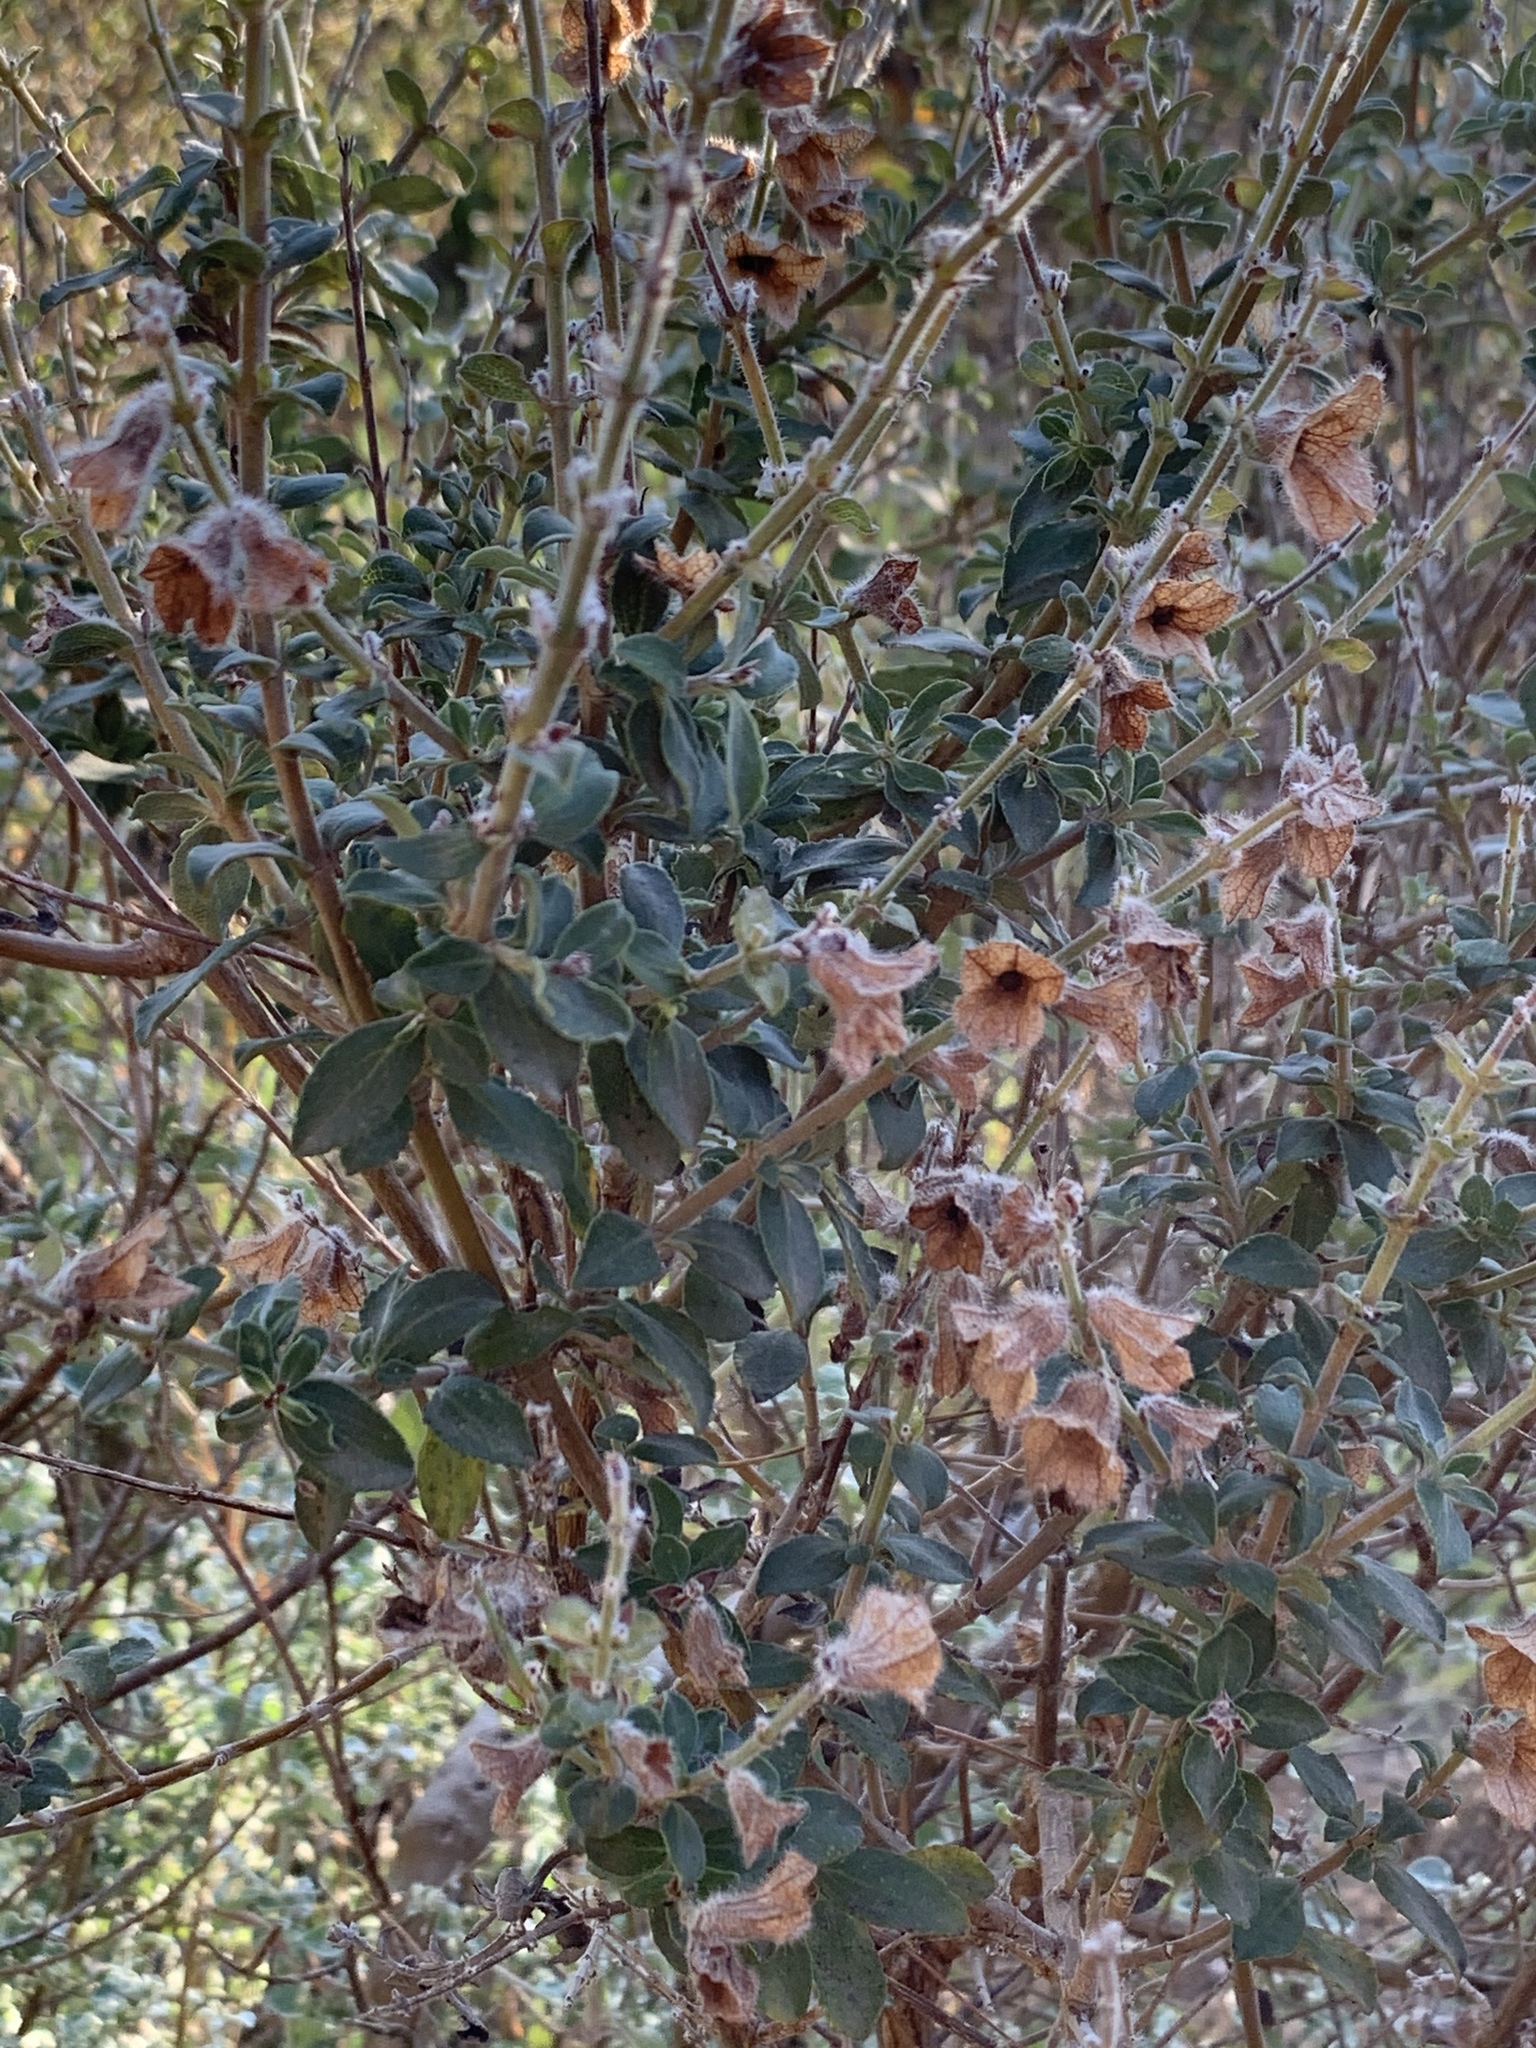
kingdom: Plantae
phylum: Tracheophyta
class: Magnoliopsida
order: Lamiales
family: Lamiaceae
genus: Salvia
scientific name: Salvia africana
